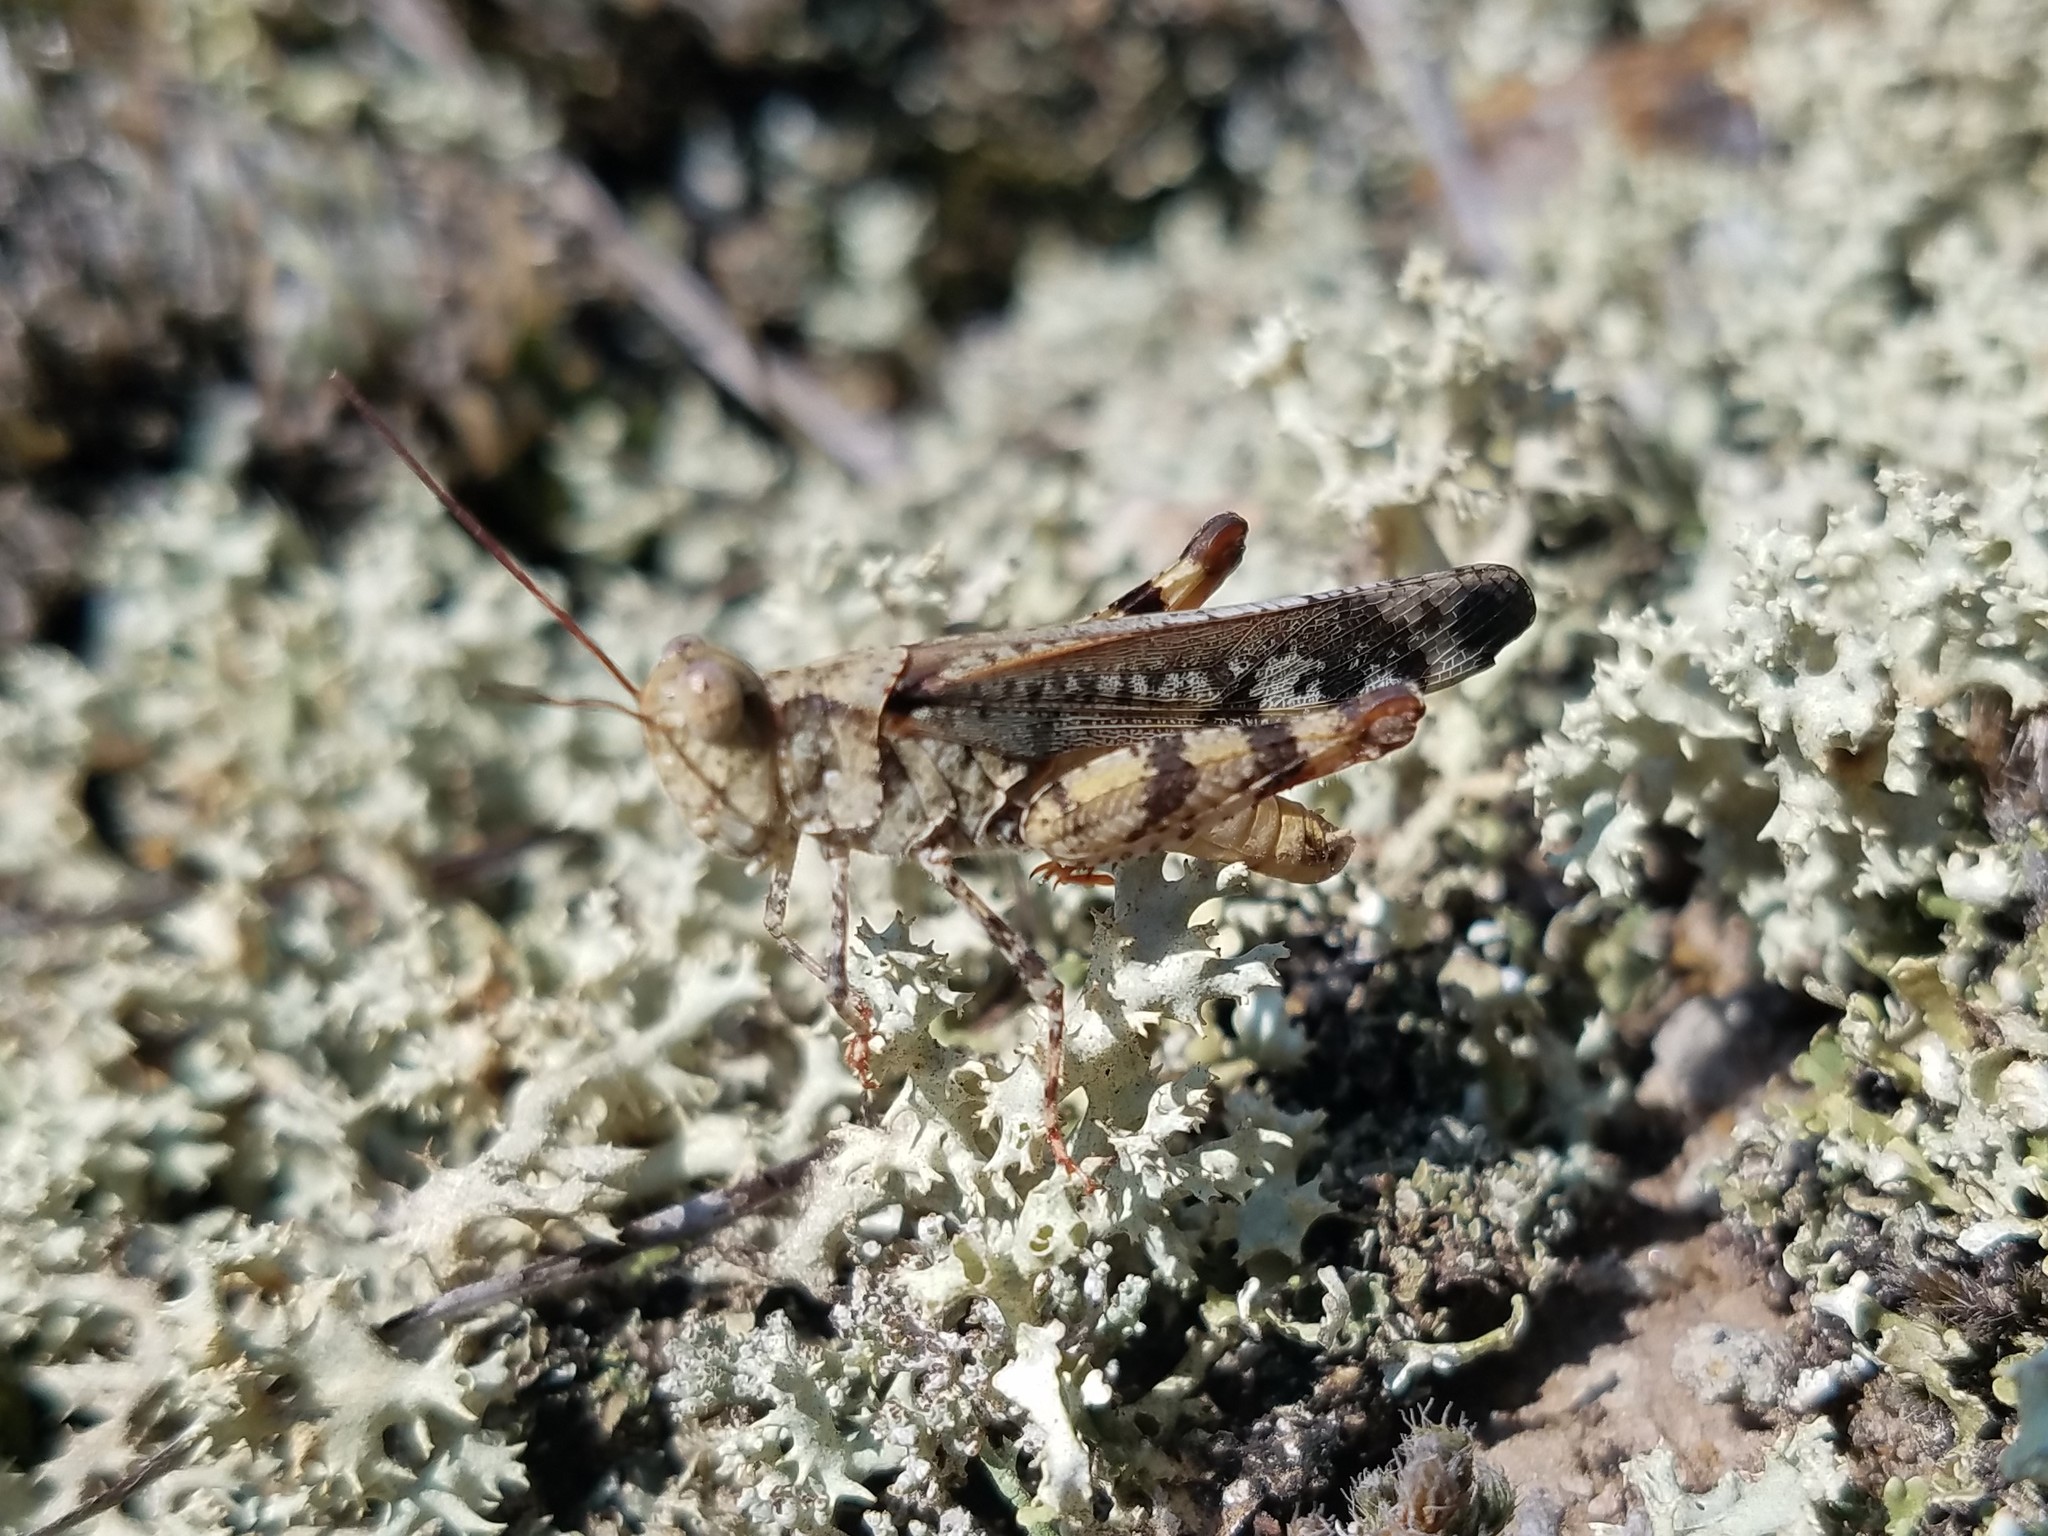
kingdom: Animalia
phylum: Arthropoda
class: Insecta
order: Orthoptera
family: Acrididae
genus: Spharagemon
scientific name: Spharagemon marmoratum
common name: Marbled grasshopper
